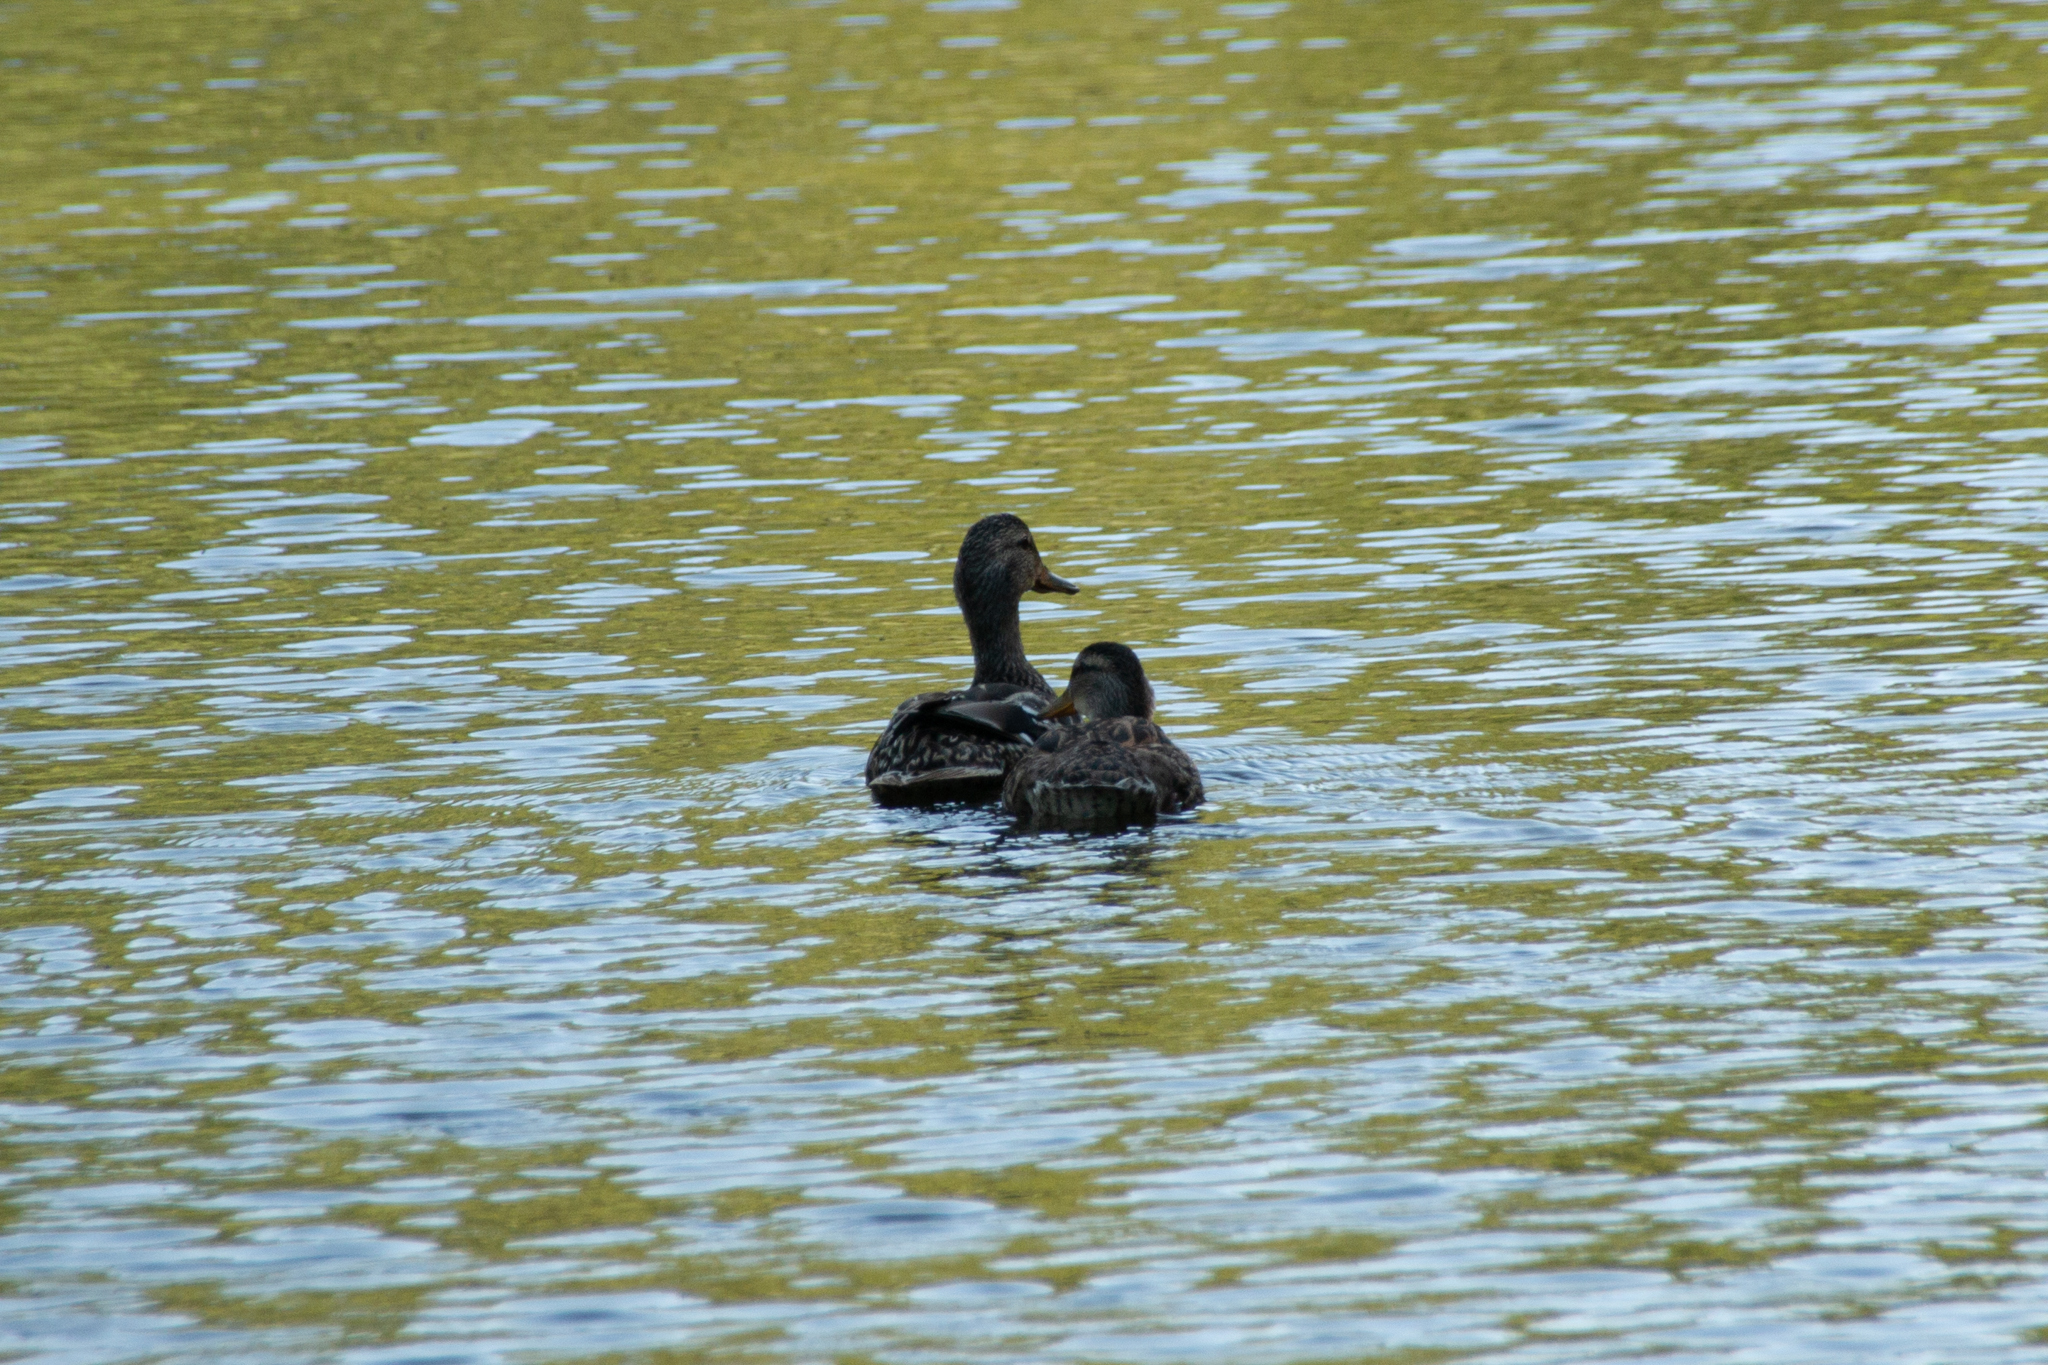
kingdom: Animalia
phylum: Chordata
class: Aves
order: Anseriformes
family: Anatidae
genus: Anas
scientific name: Anas platyrhynchos
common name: Mallard
